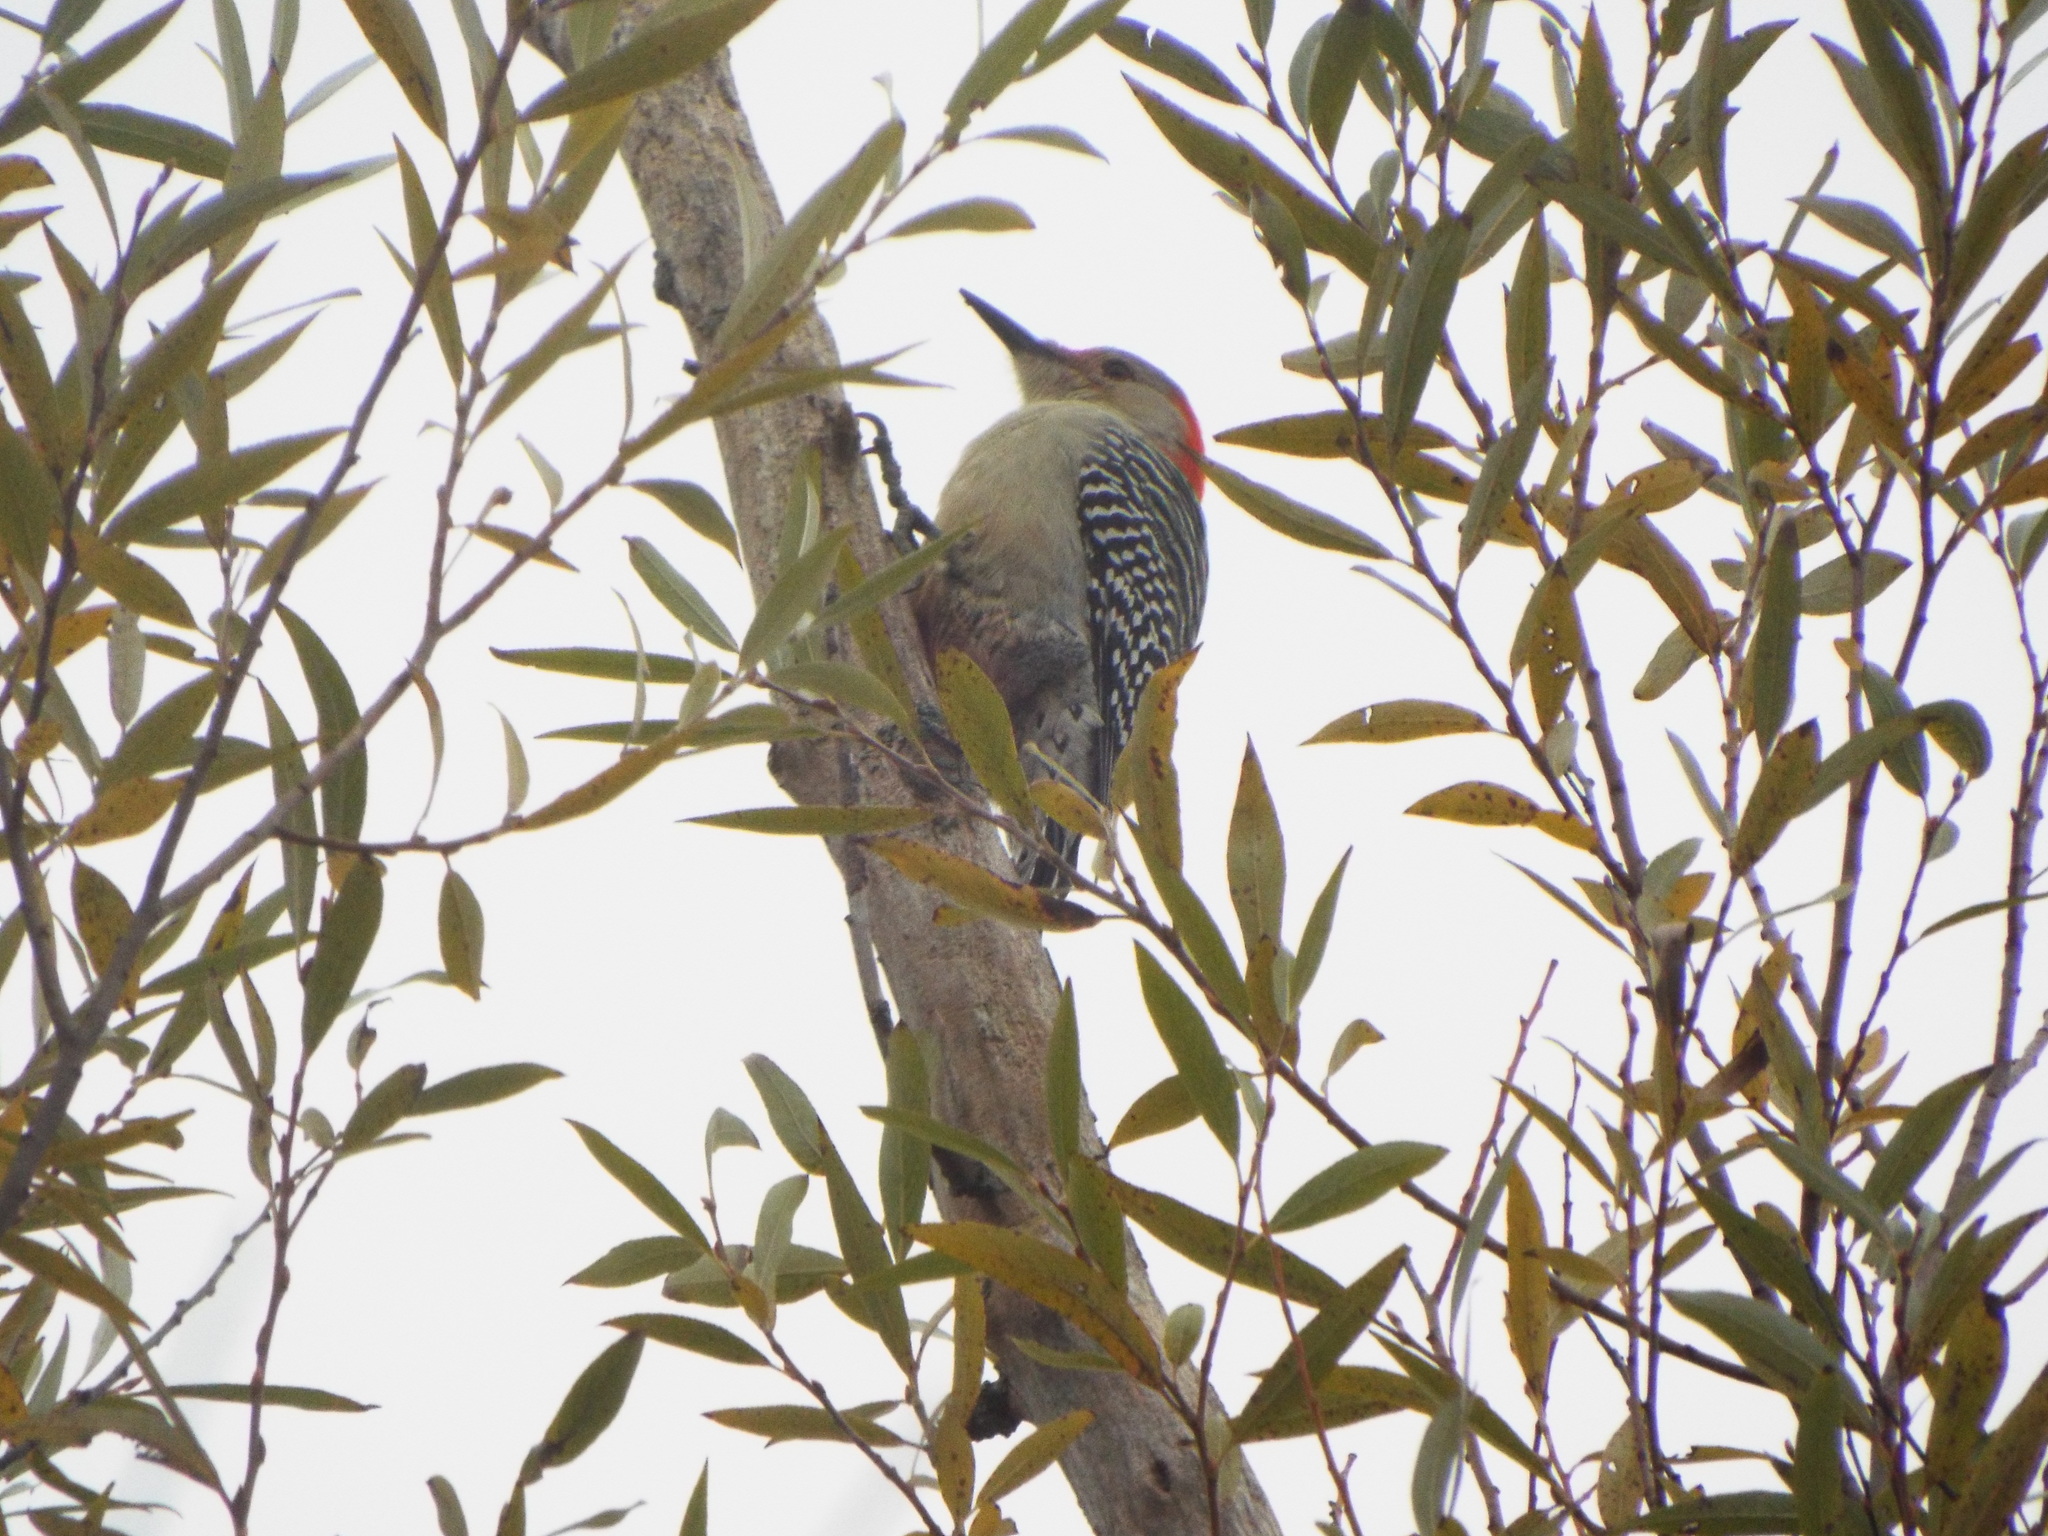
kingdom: Animalia
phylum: Chordata
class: Aves
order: Piciformes
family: Picidae
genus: Melanerpes
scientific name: Melanerpes carolinus
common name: Red-bellied woodpecker
